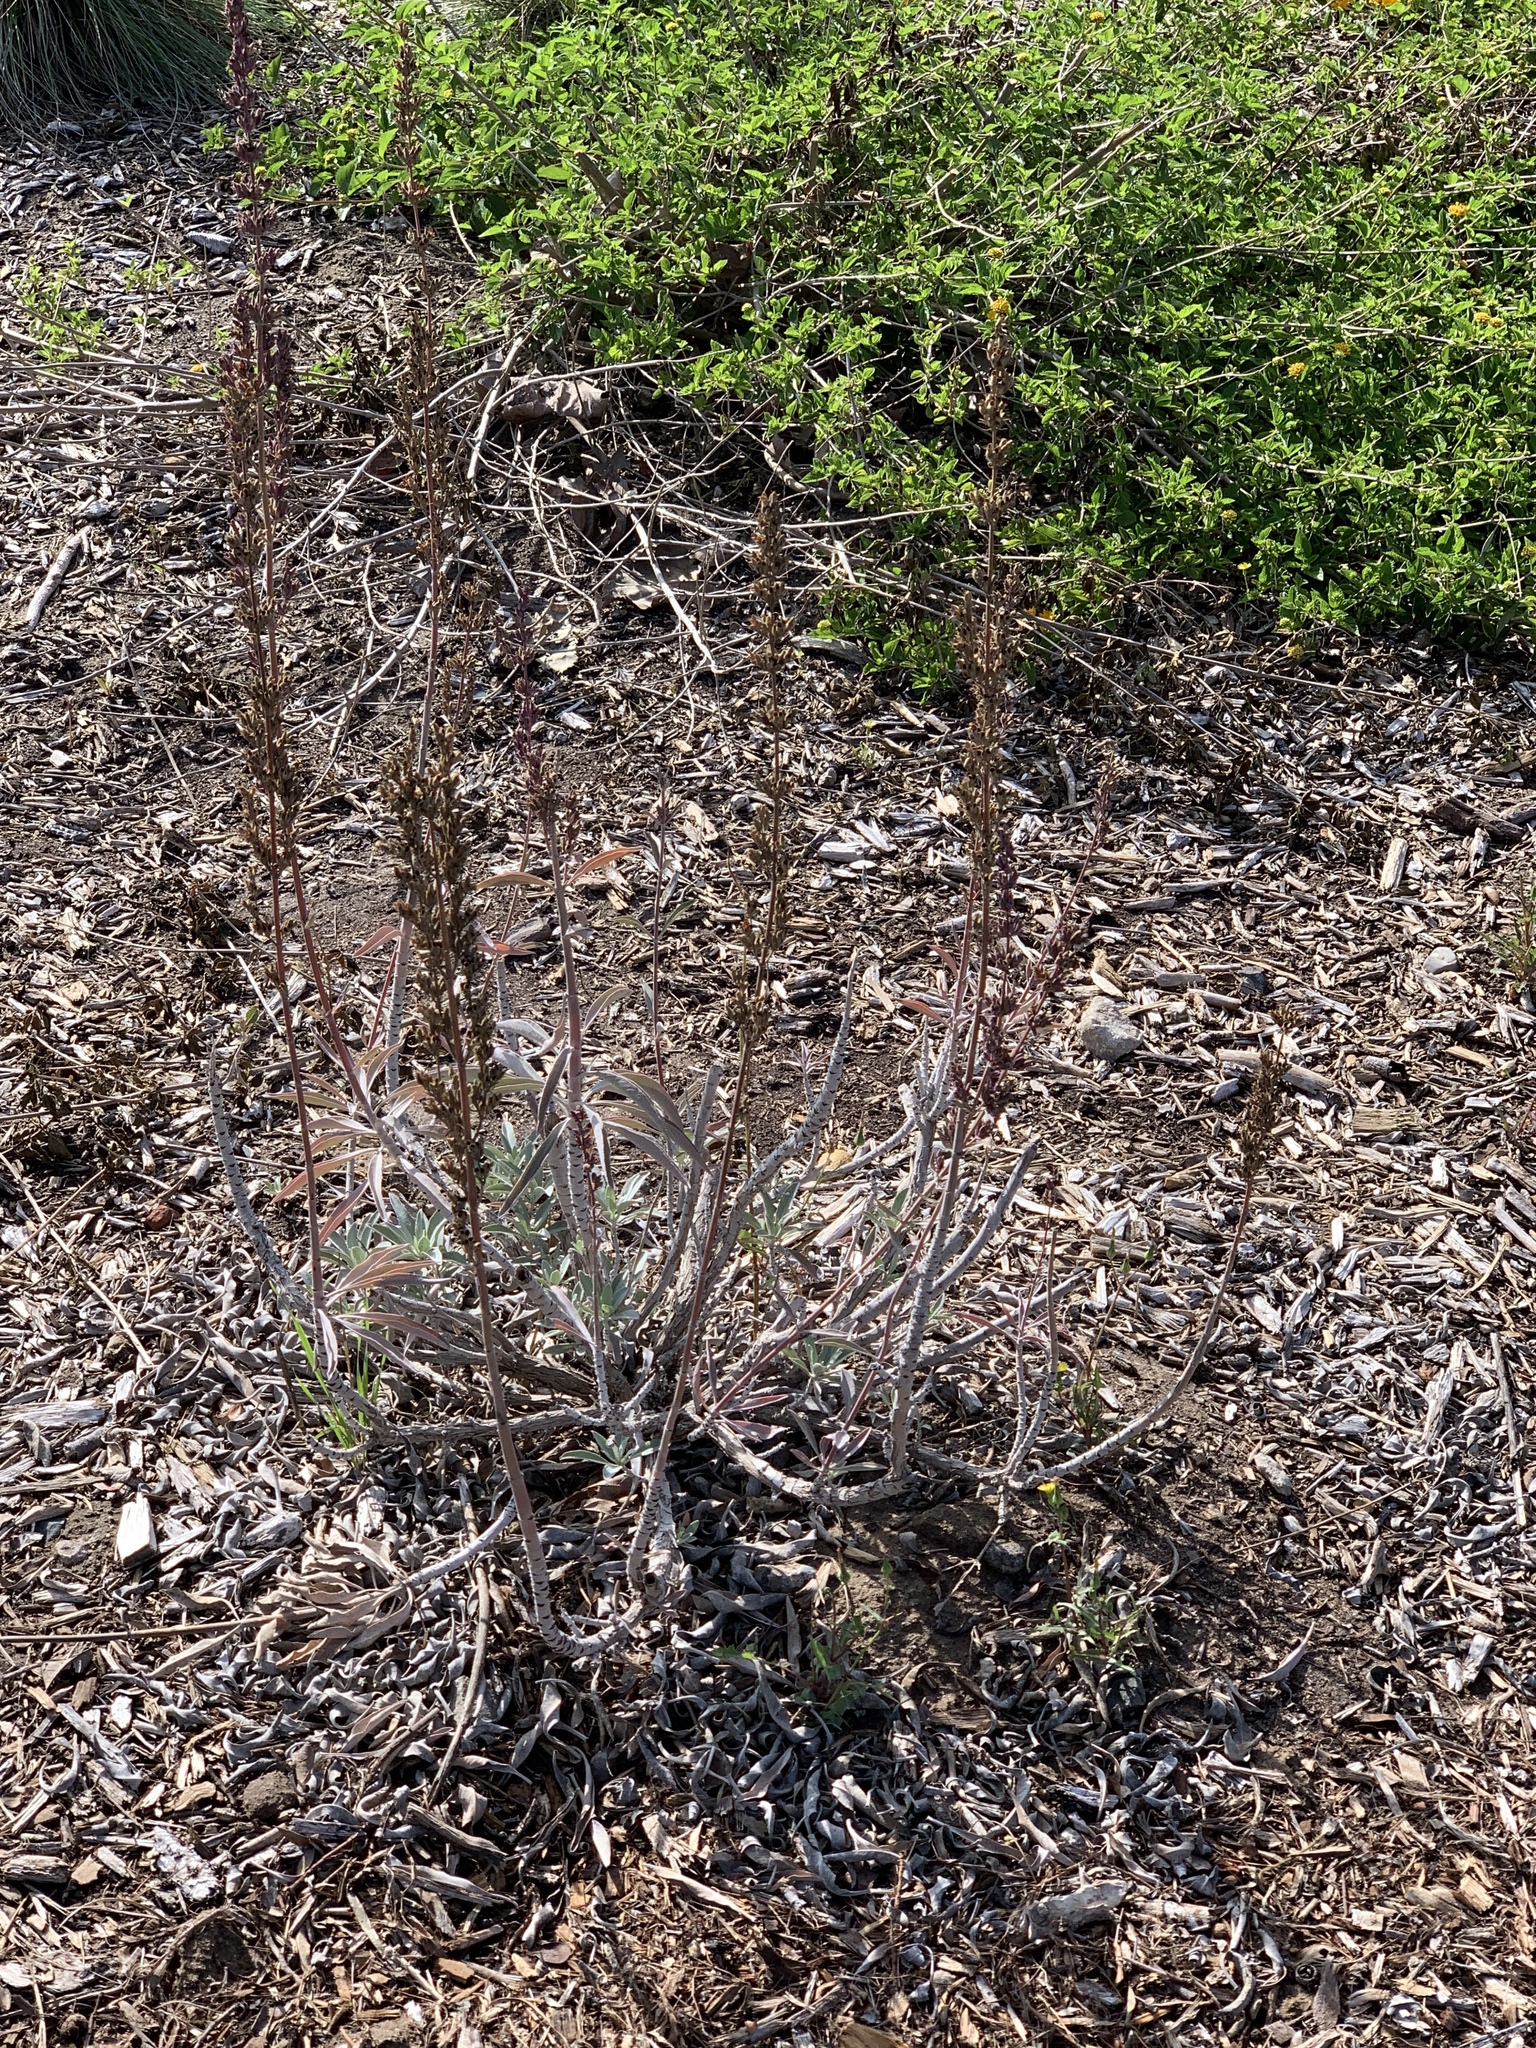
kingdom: Plantae
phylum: Tracheophyta
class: Magnoliopsida
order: Lamiales
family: Lamiaceae
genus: Salvia
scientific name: Salvia apiana
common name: White sage
